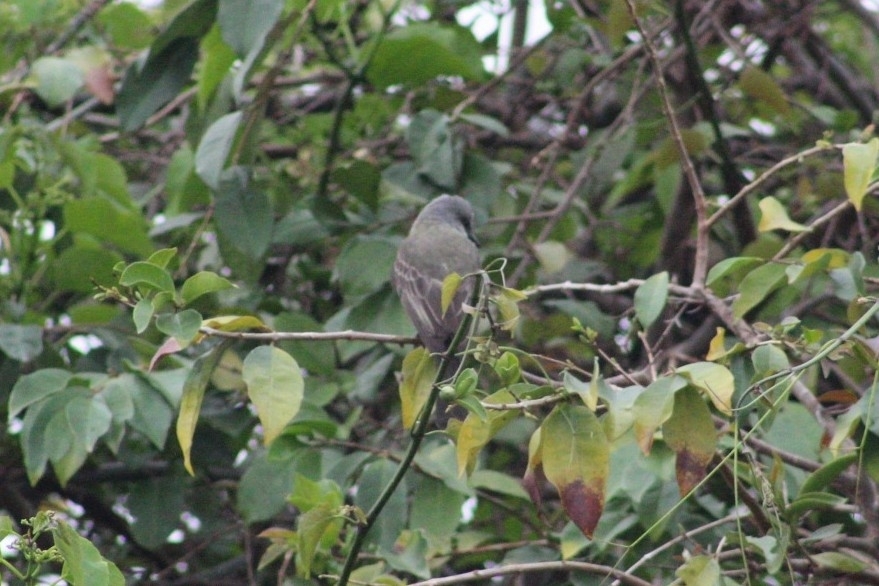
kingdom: Animalia
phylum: Chordata
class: Aves
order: Passeriformes
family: Tyrannidae
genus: Tyrannus
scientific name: Tyrannus melancholicus
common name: Tropical kingbird
